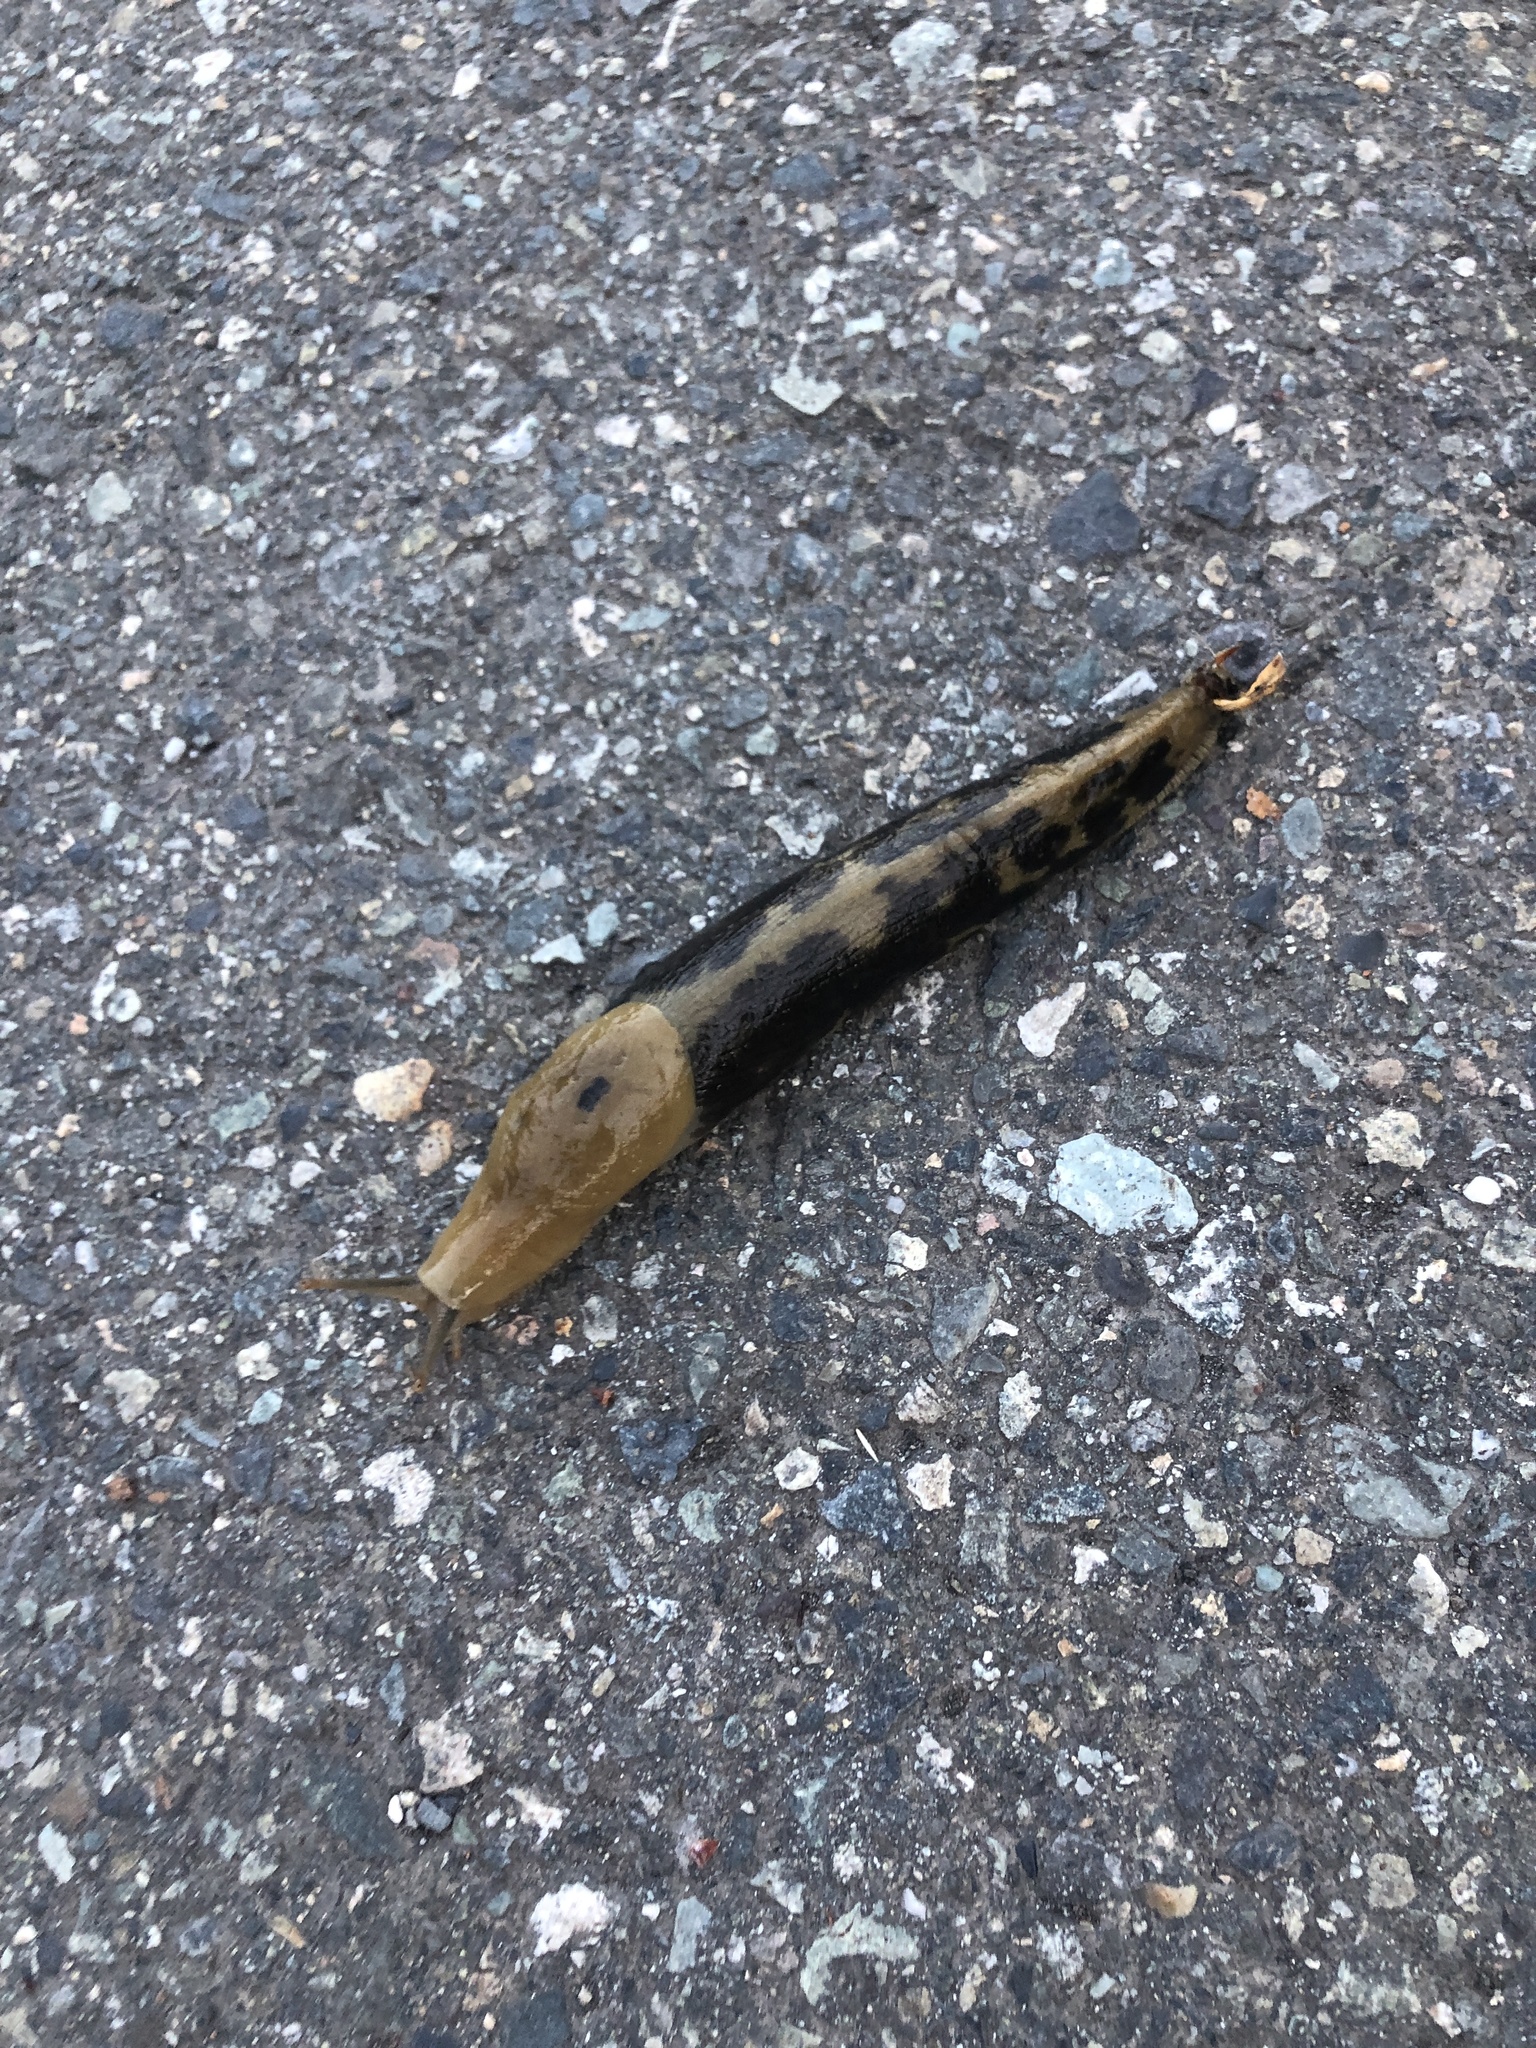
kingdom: Animalia
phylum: Mollusca
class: Gastropoda
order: Stylommatophora
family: Ariolimacidae
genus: Ariolimax
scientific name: Ariolimax columbianus
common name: Pacific banana slug
